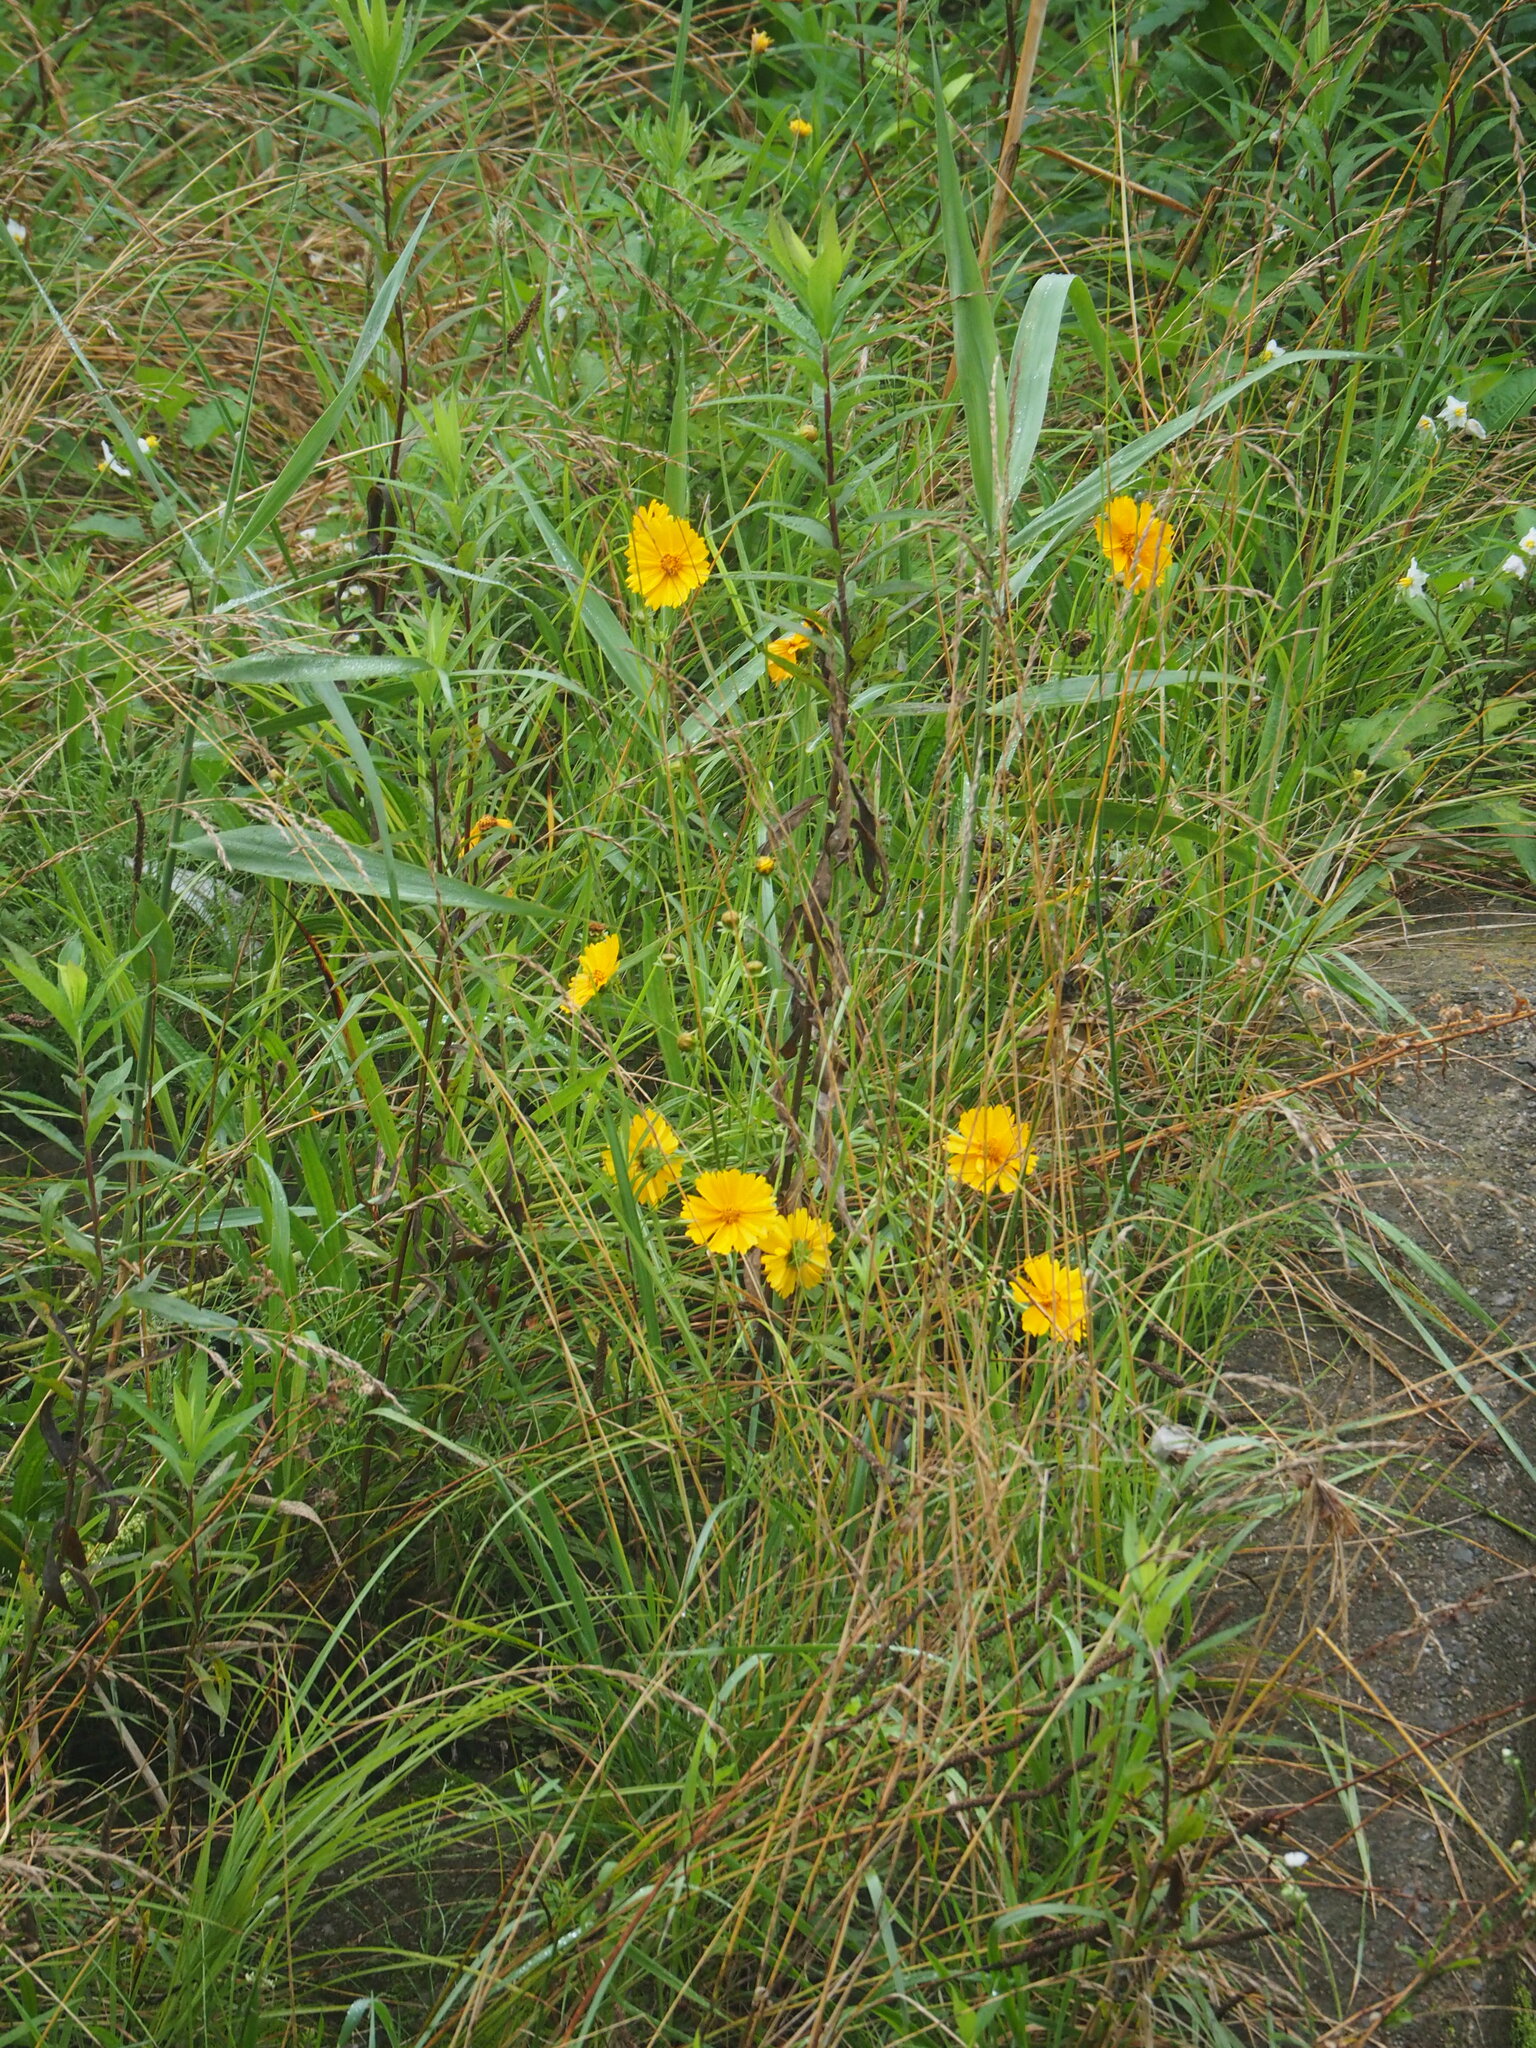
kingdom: Plantae
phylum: Tracheophyta
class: Magnoliopsida
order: Asterales
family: Asteraceae
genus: Coreopsis
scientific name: Coreopsis lanceolata
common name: Garden coreopsis
